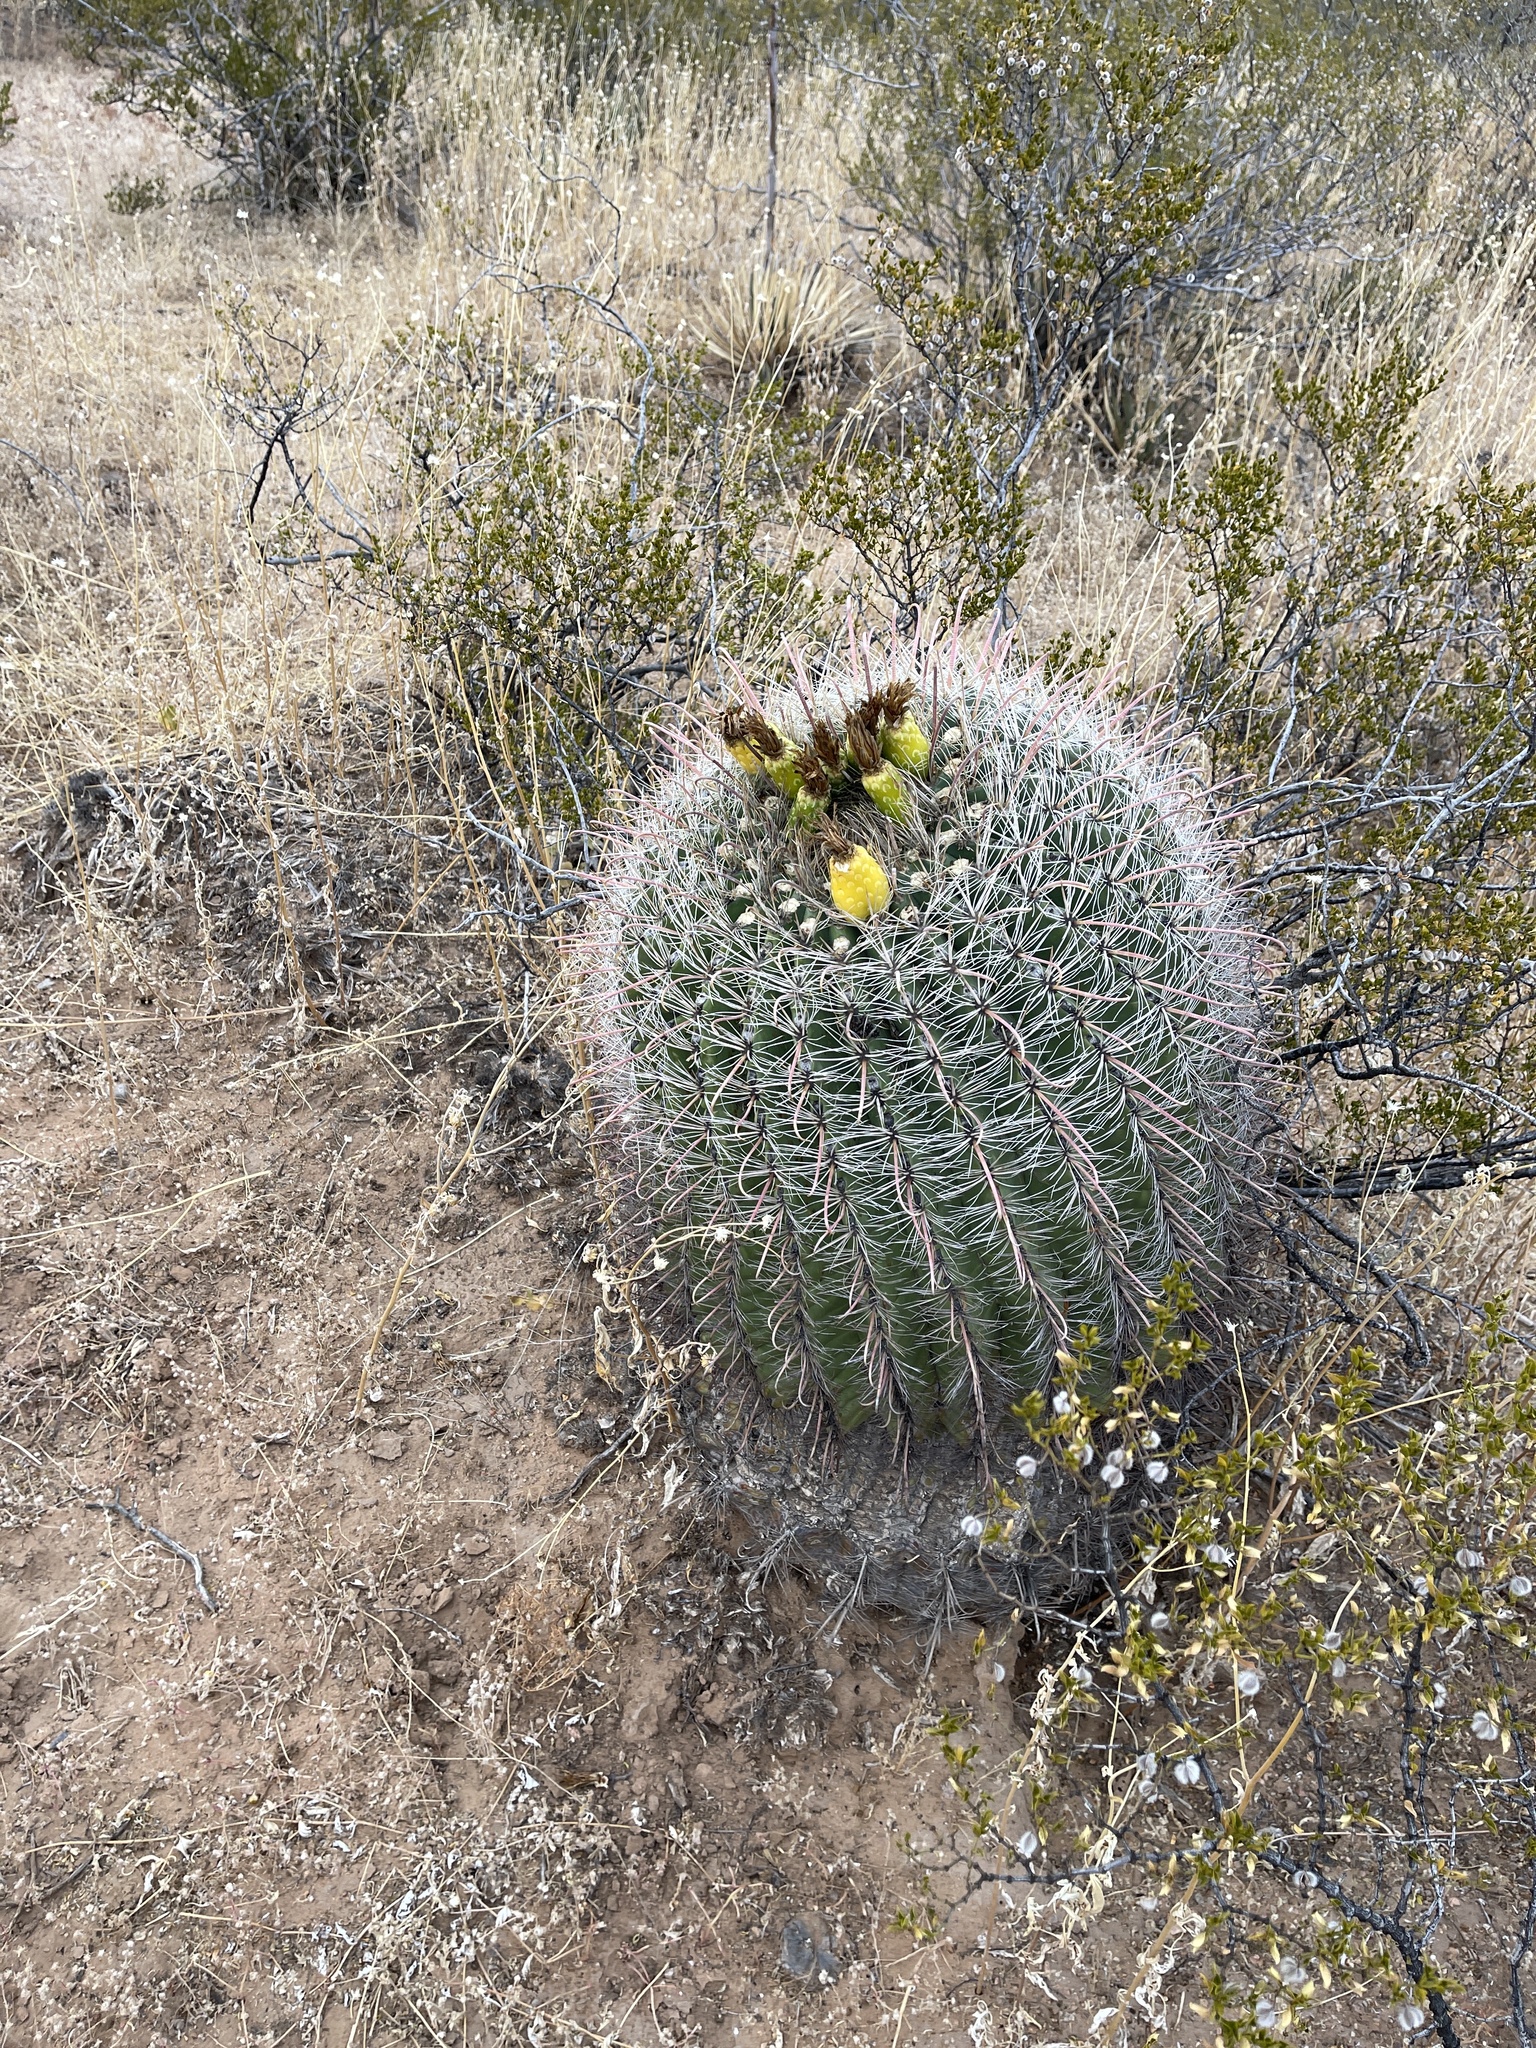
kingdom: Plantae
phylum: Tracheophyta
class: Magnoliopsida
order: Caryophyllales
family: Cactaceae
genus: Ferocactus
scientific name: Ferocactus wislizeni
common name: Candy barrel cactus
